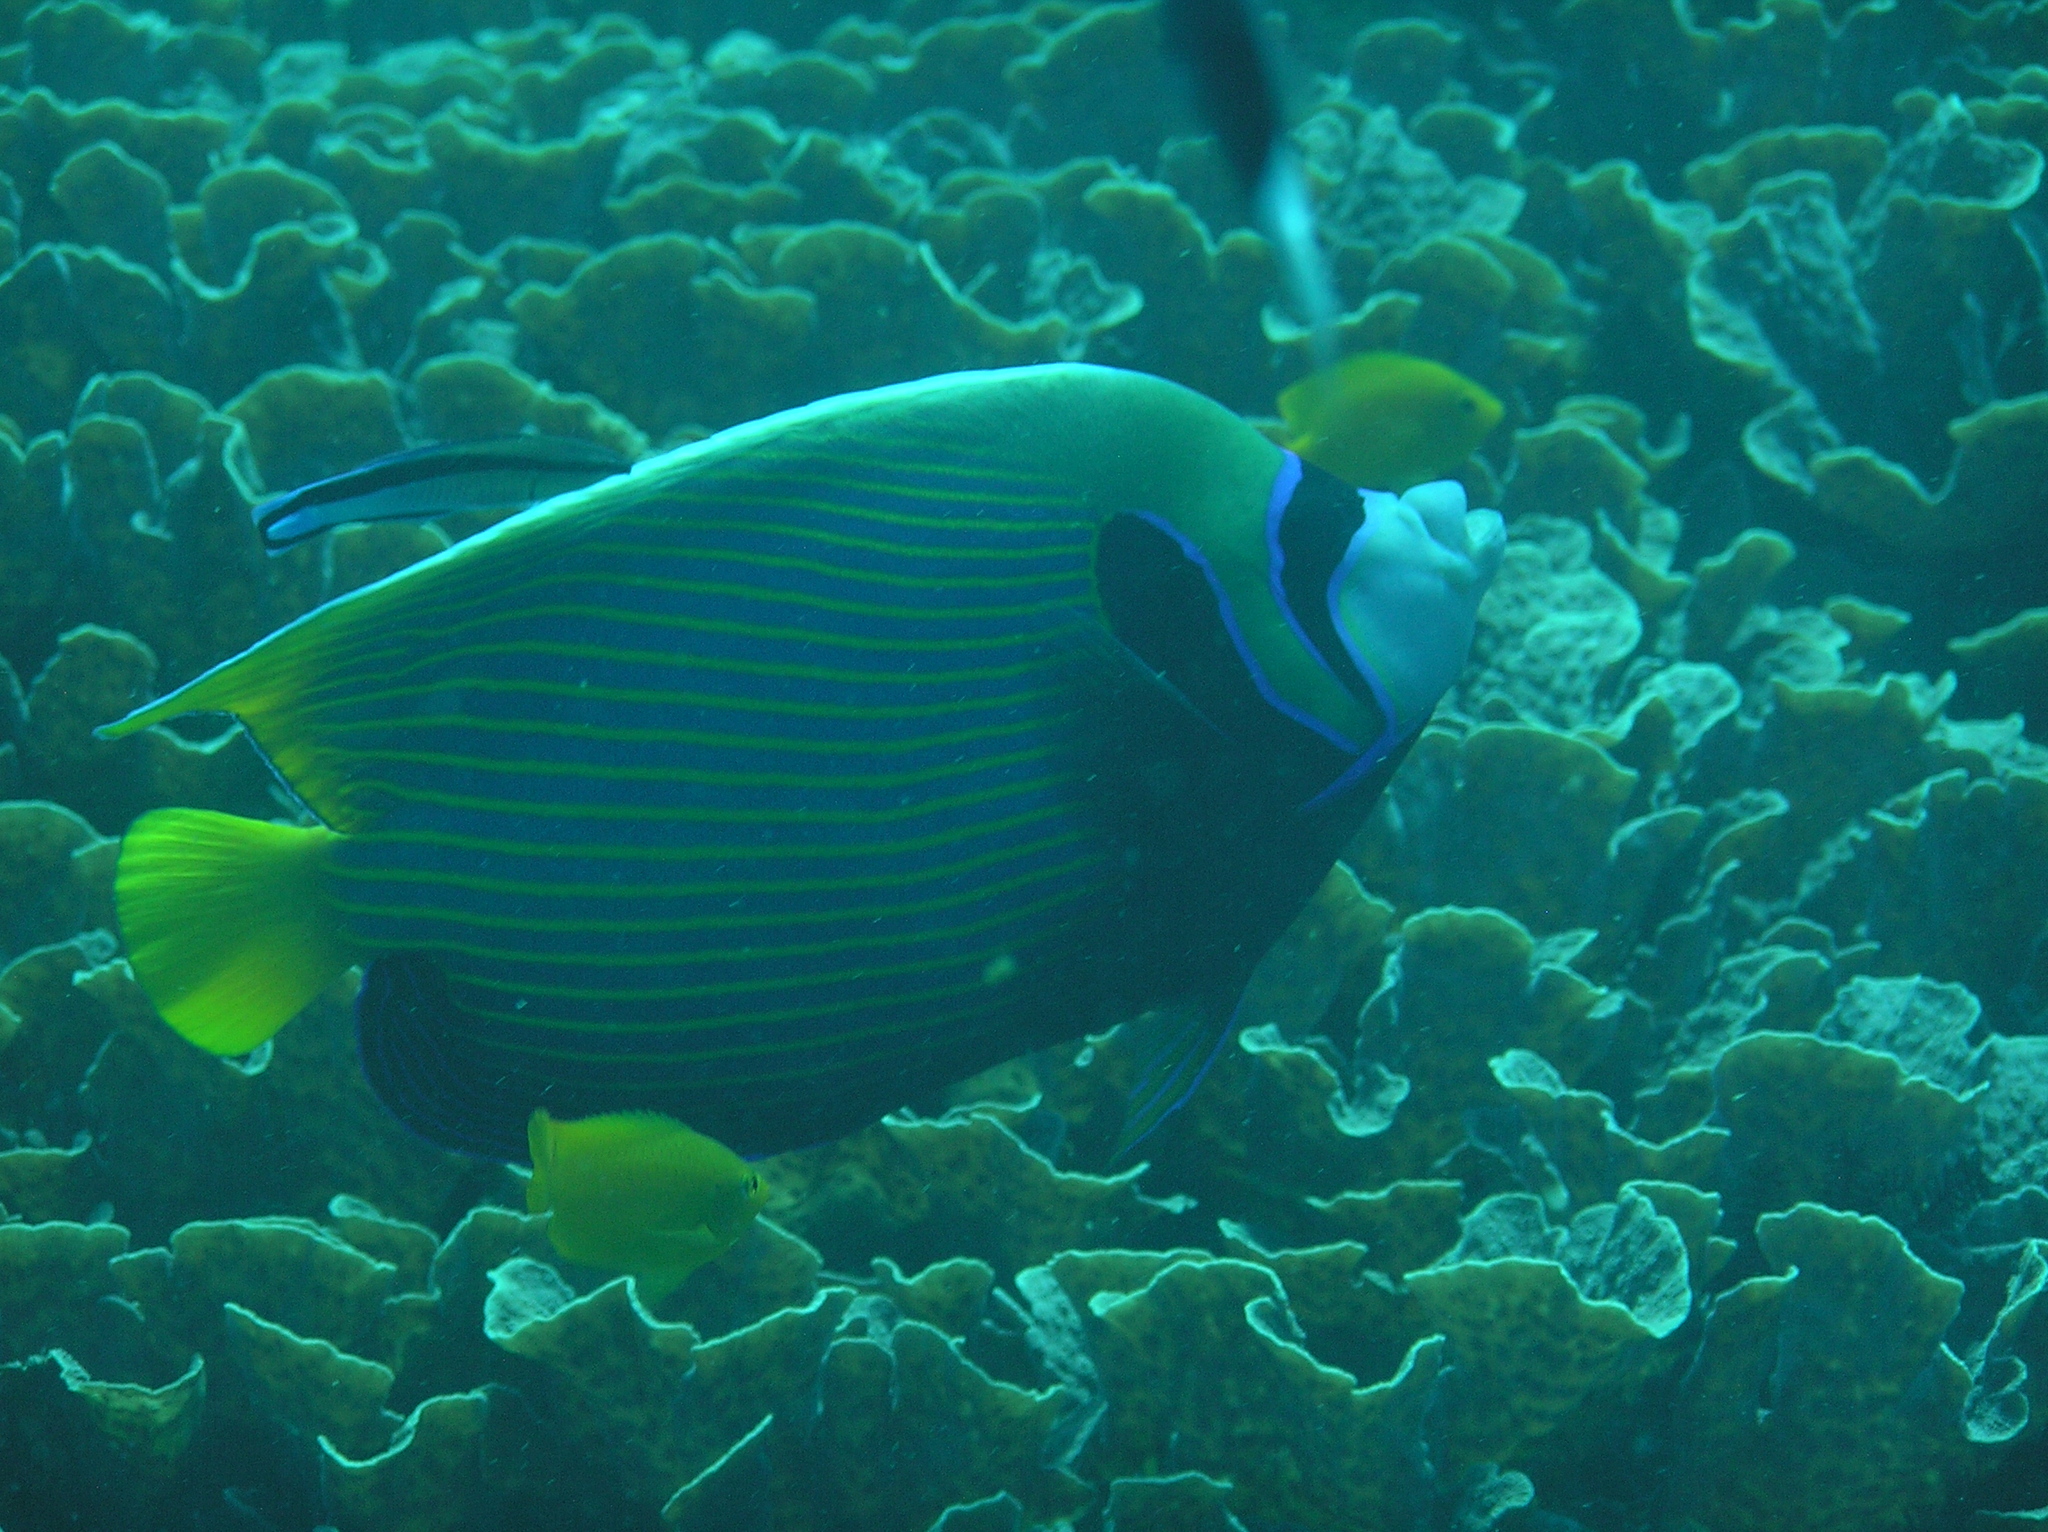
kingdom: Animalia
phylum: Chordata
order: Perciformes
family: Pomacanthidae
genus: Pomacanthus
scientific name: Pomacanthus imperator
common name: Emperor angelfish
